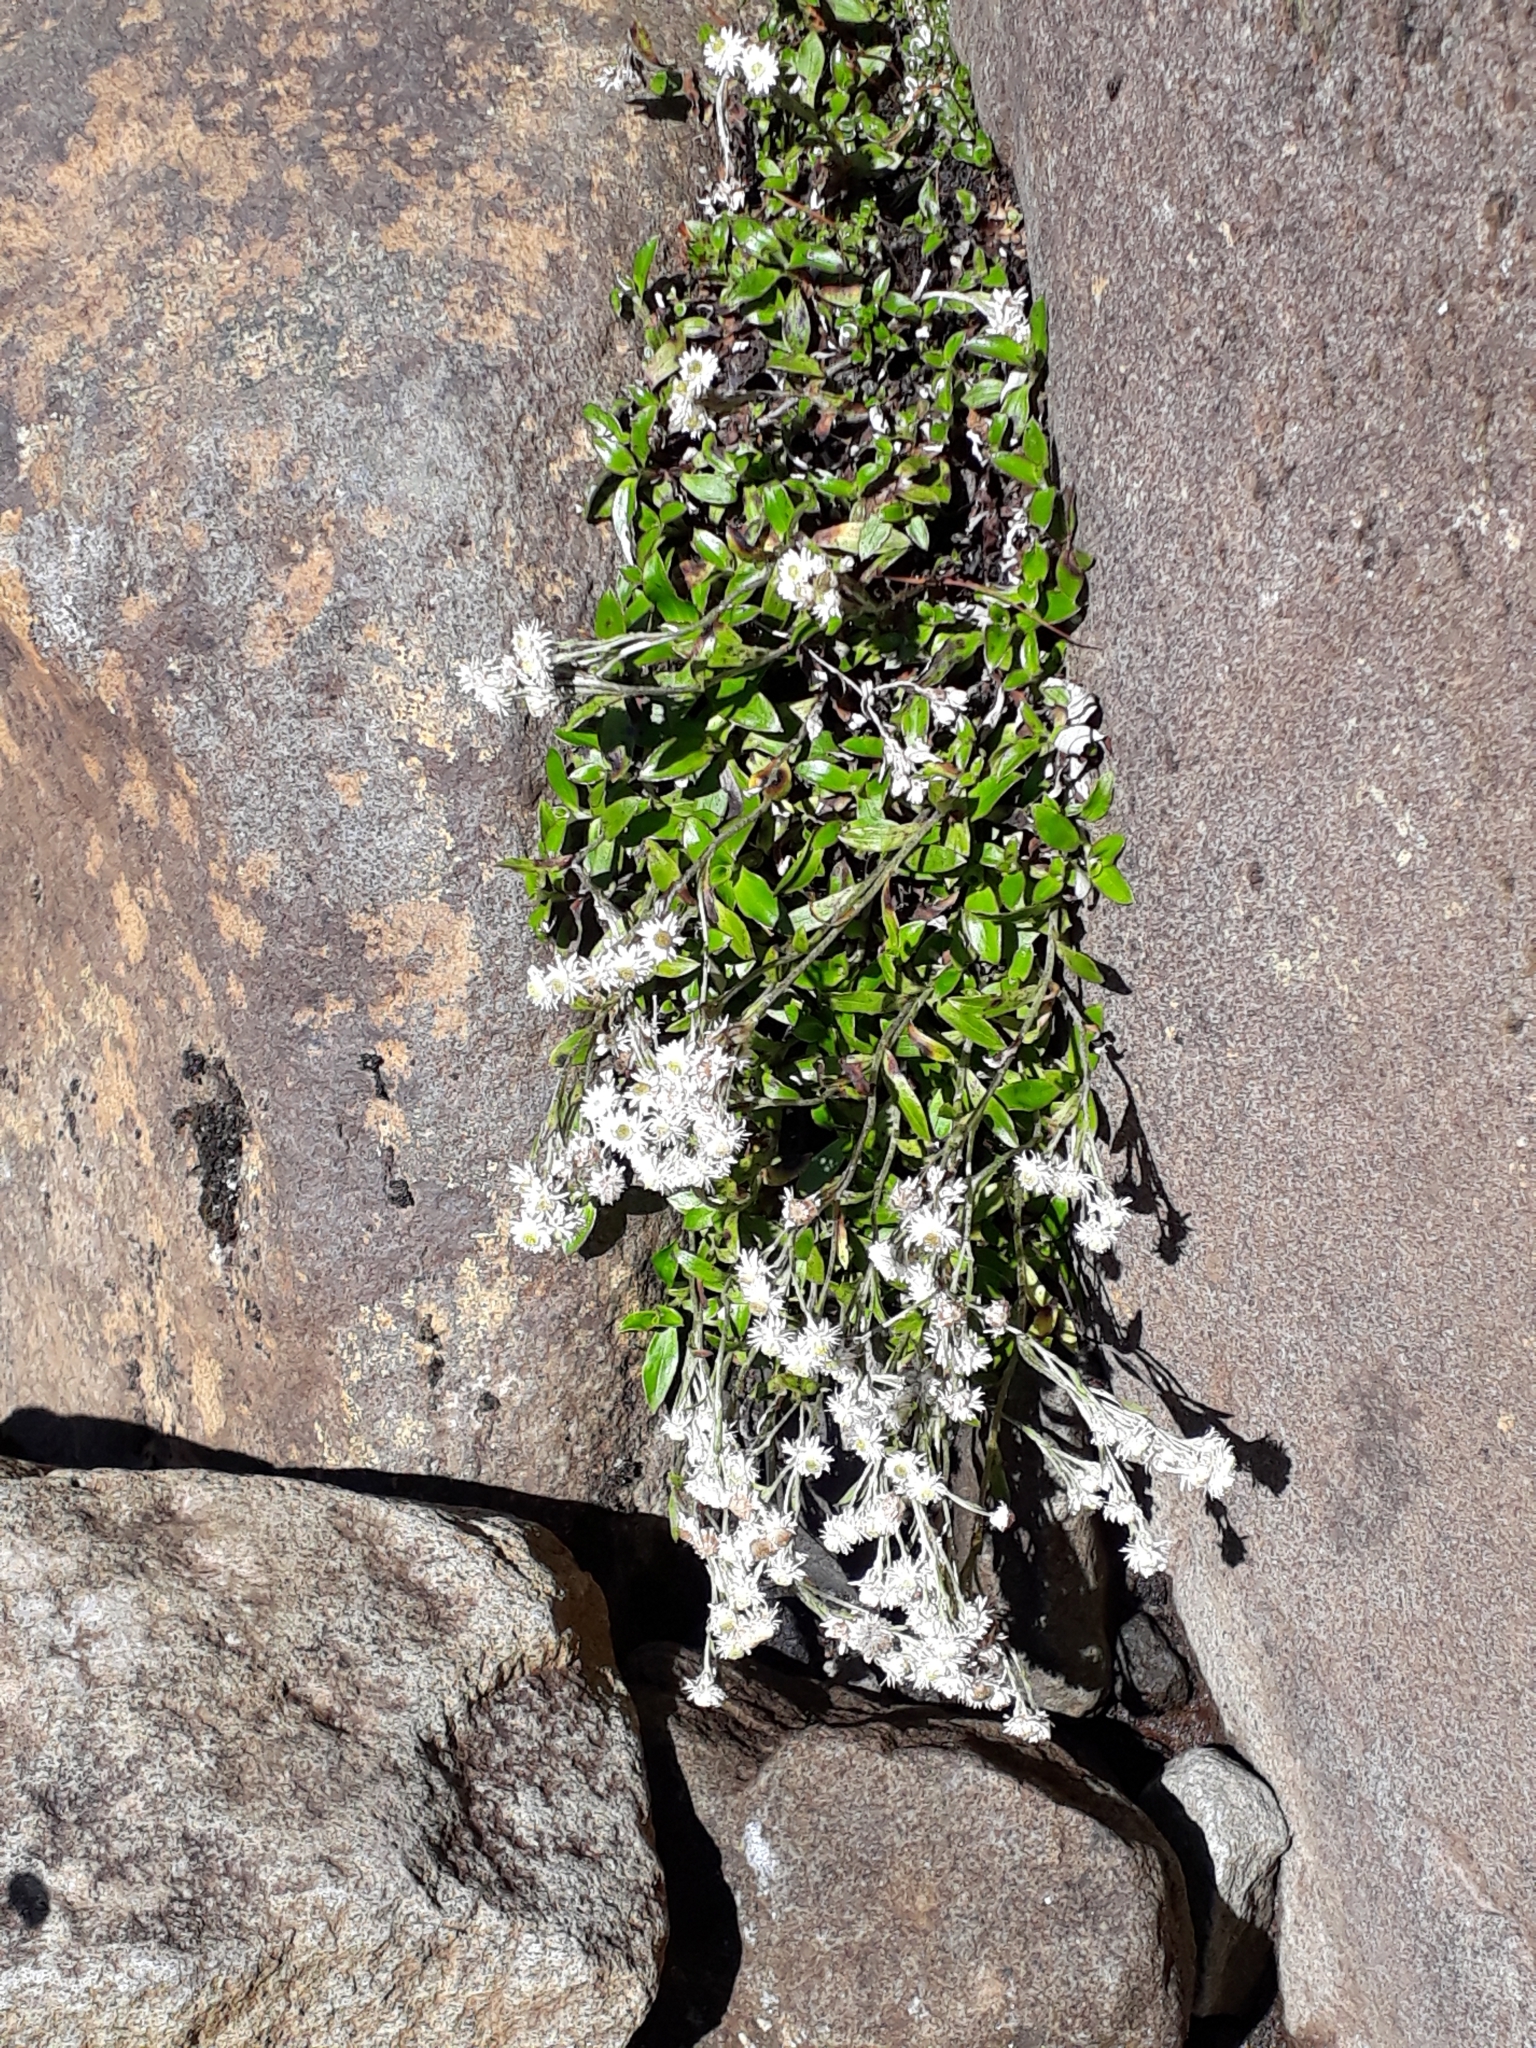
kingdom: Plantae
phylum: Tracheophyta
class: Magnoliopsida
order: Asterales
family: Asteraceae
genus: Anaphalioides
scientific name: Anaphalioides trinervis
